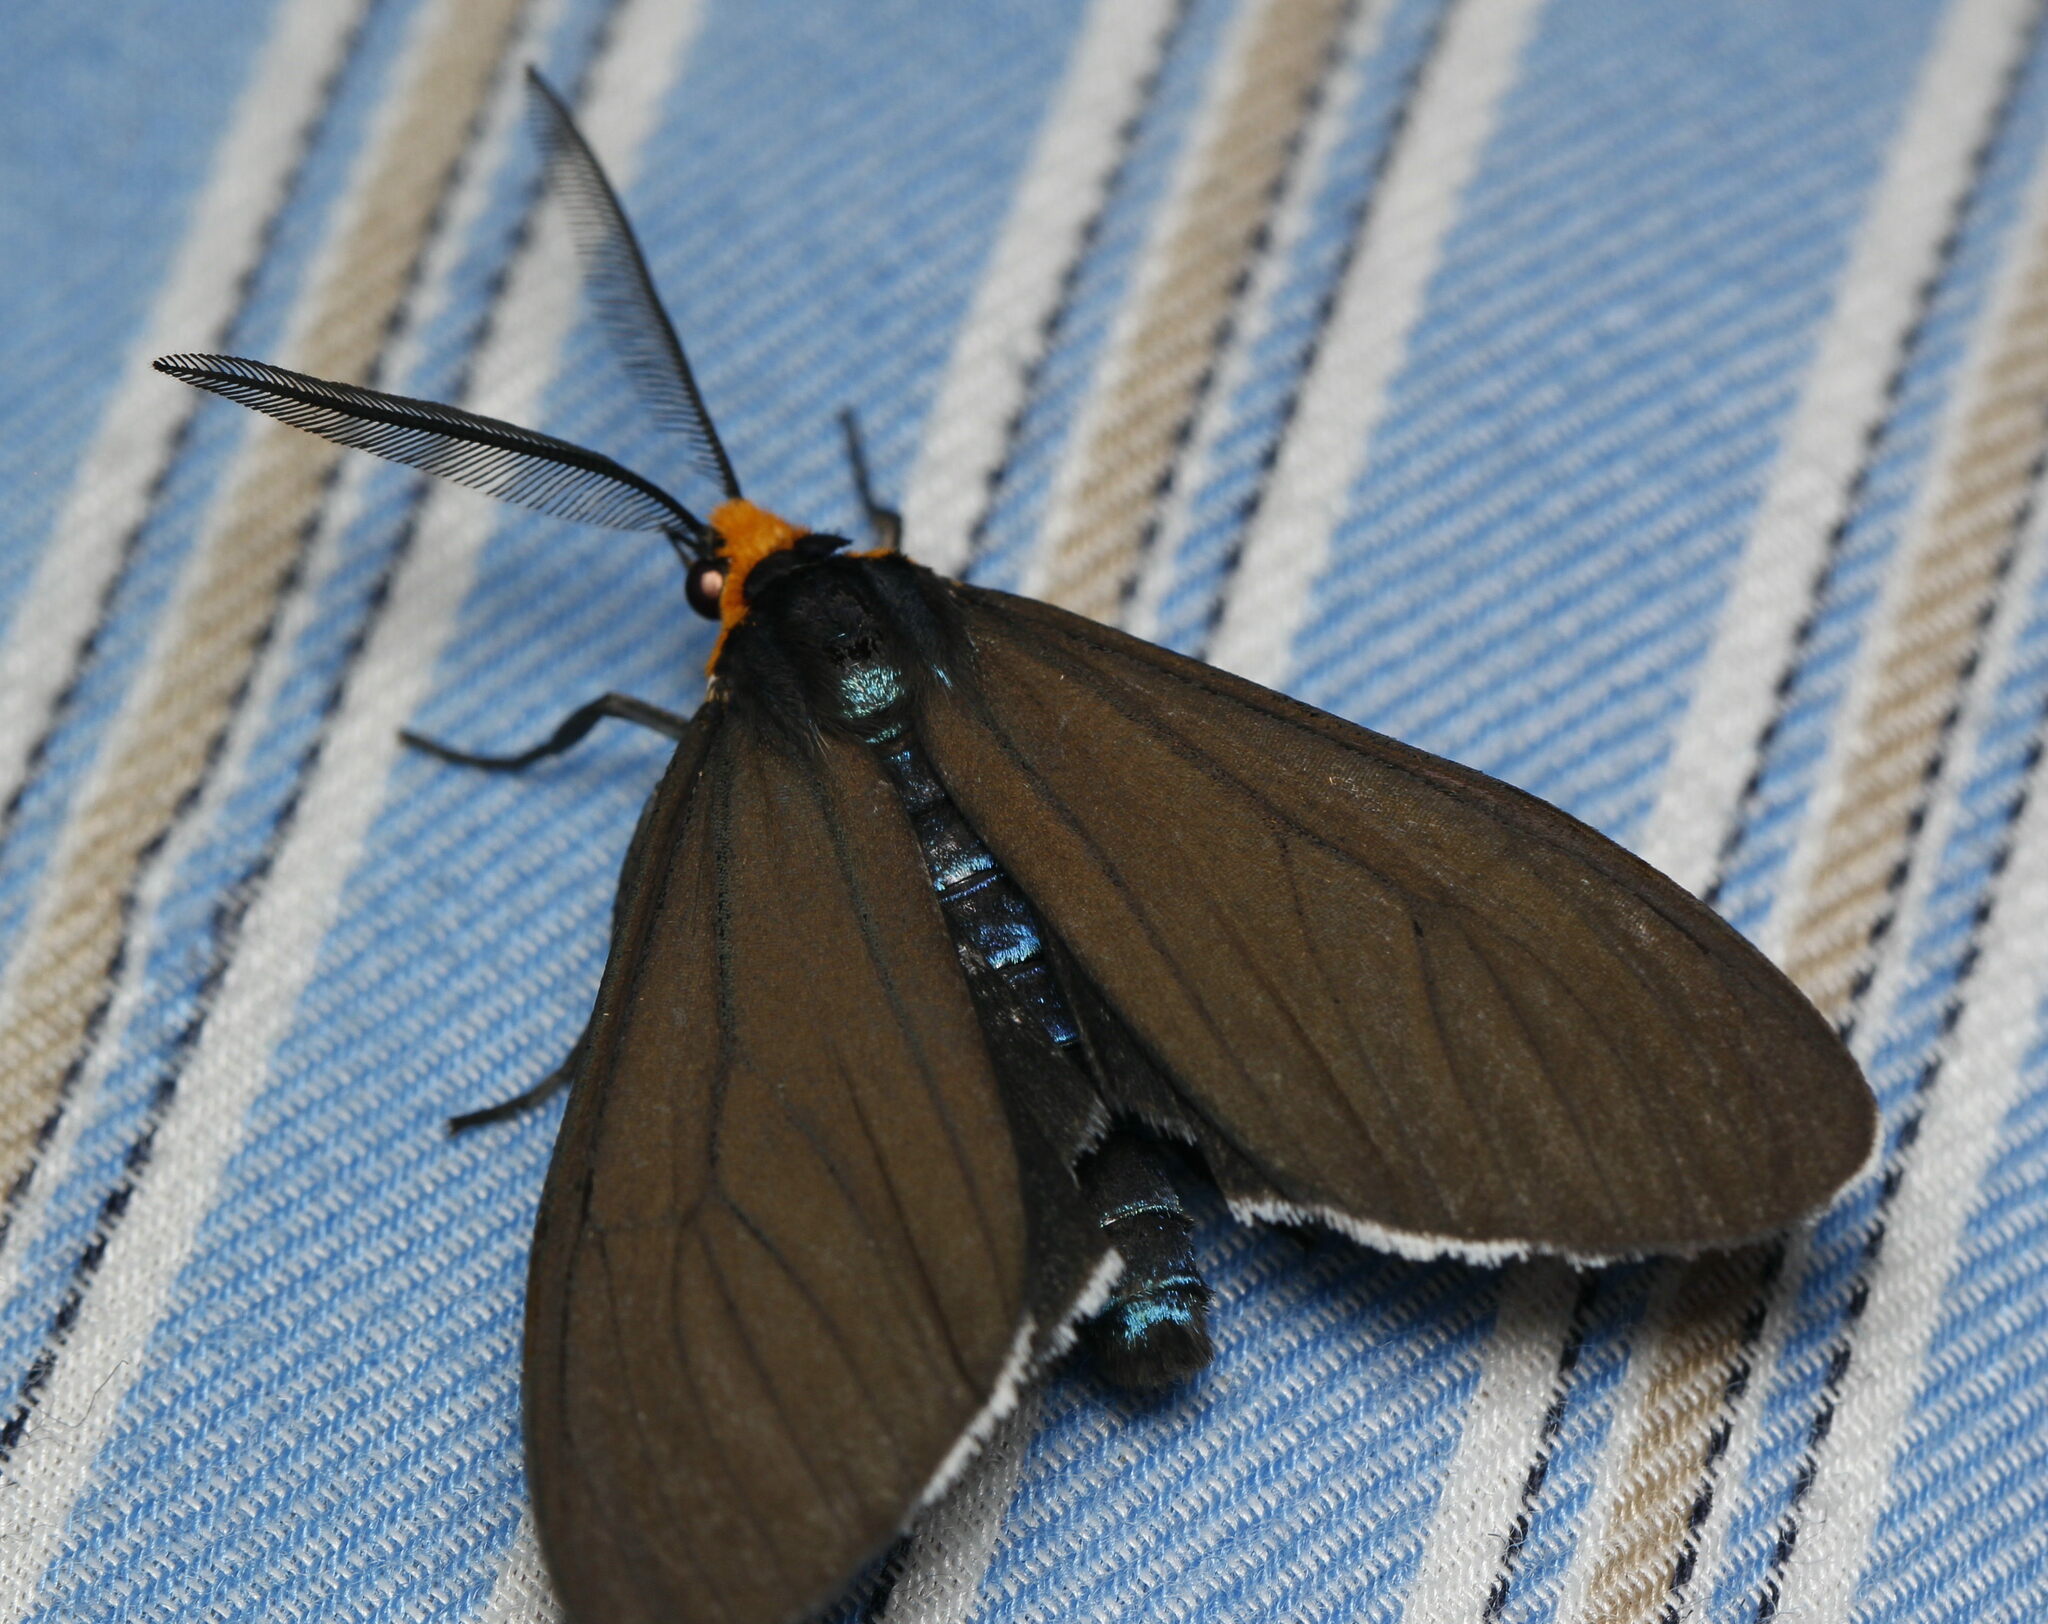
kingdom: Animalia
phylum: Arthropoda
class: Insecta
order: Lepidoptera
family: Erebidae
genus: Ctenucha
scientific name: Ctenucha virginica
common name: Virginia ctenucha moth
